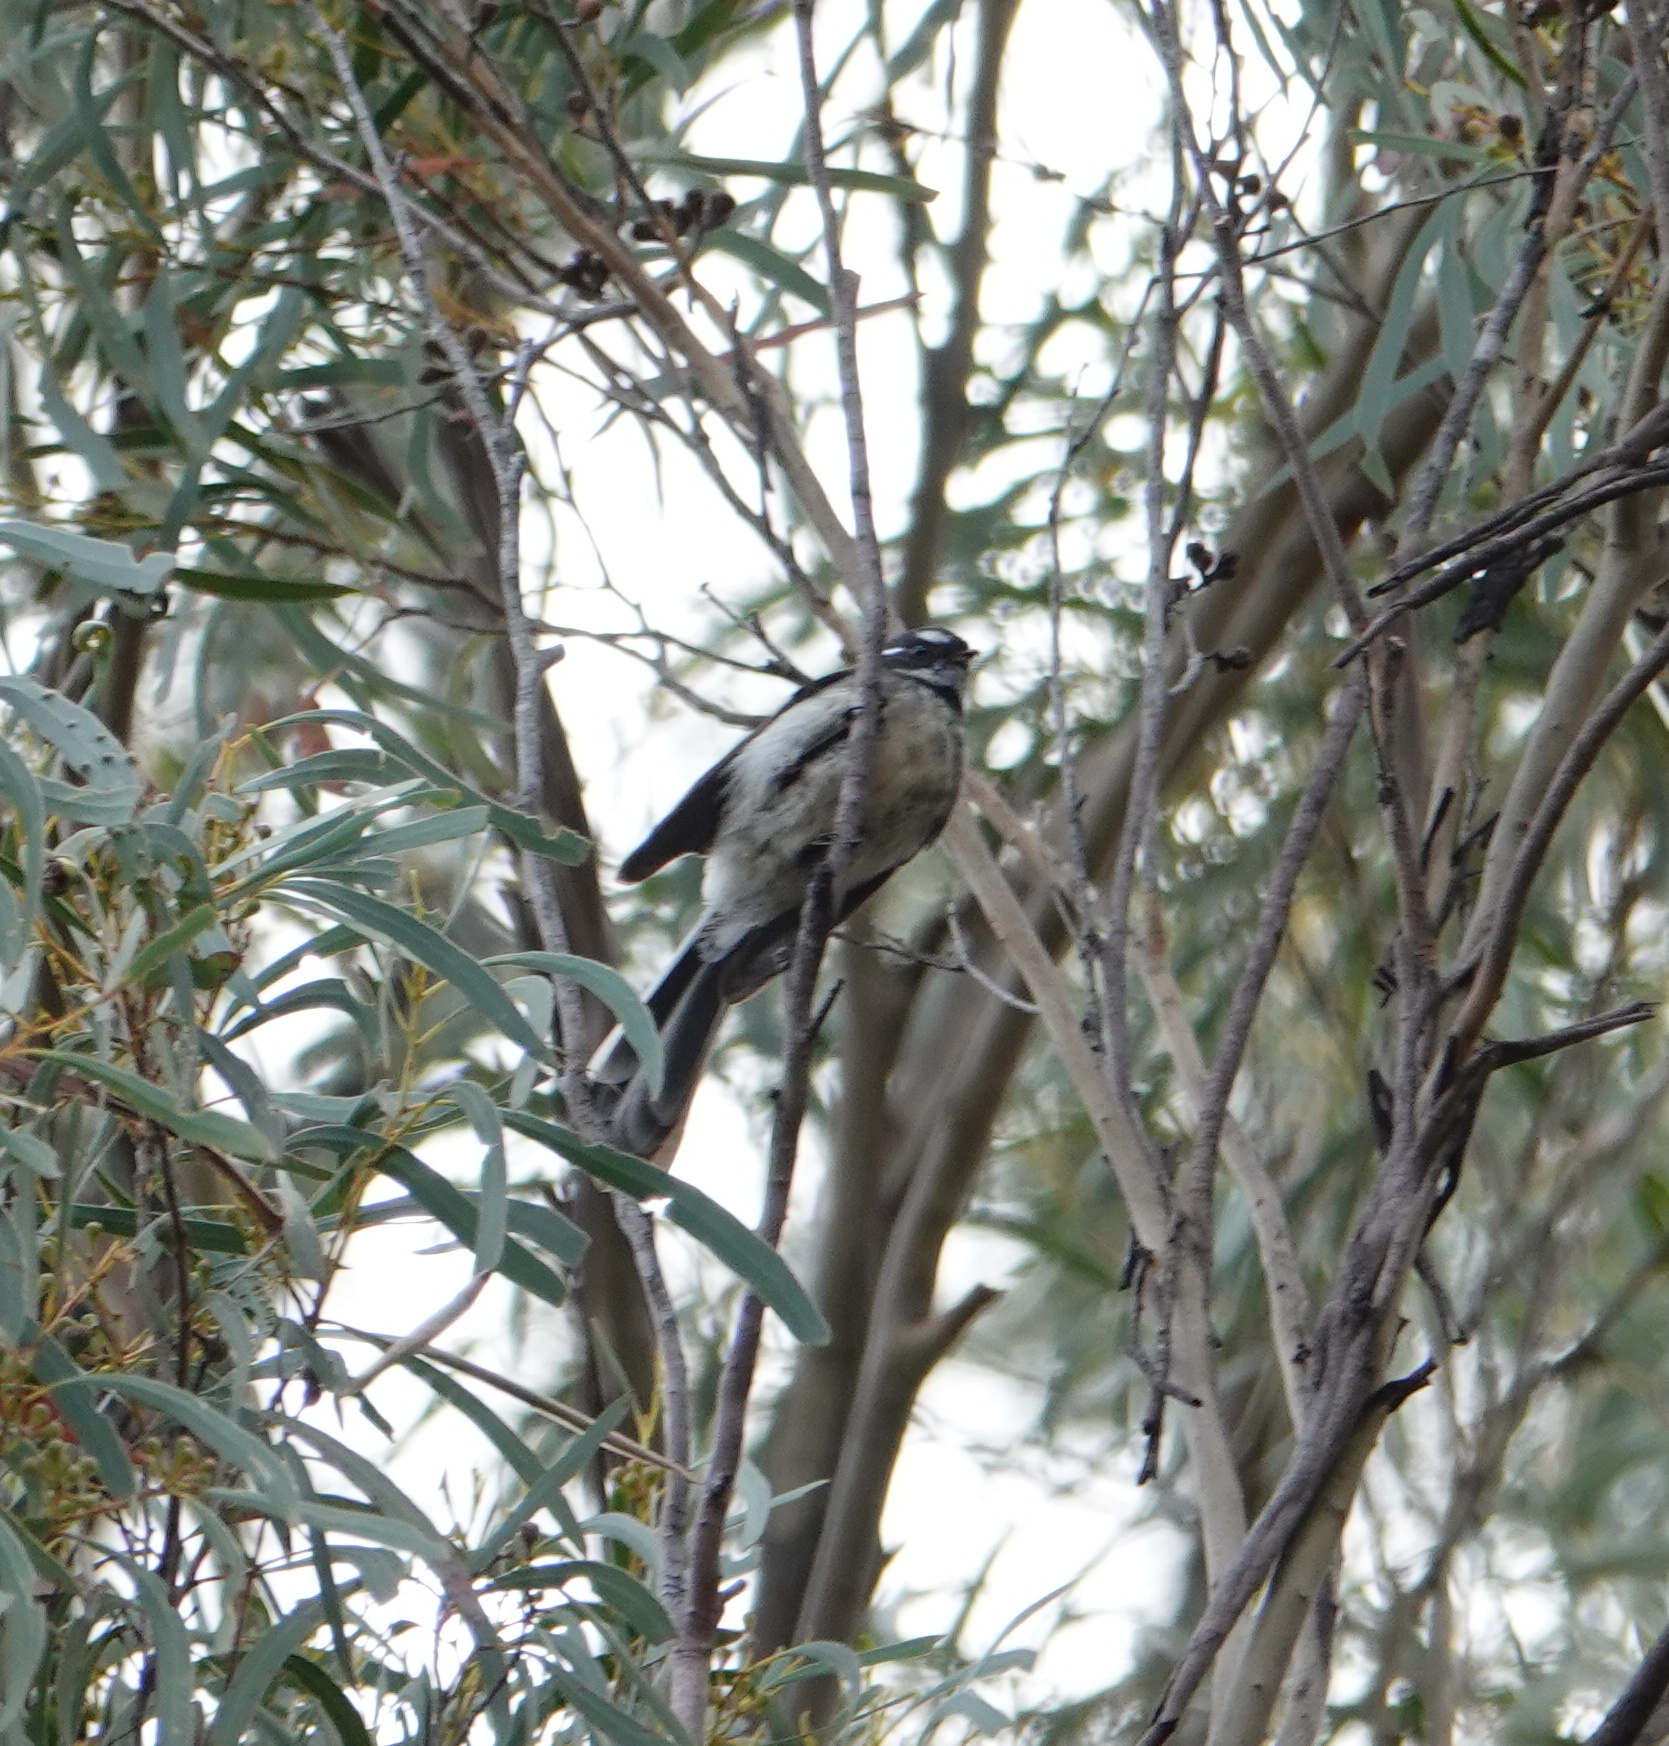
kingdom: Animalia
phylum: Chordata
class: Aves
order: Passeriformes
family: Rhipiduridae
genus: Rhipidura
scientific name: Rhipidura albiscapa
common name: Grey fantail
